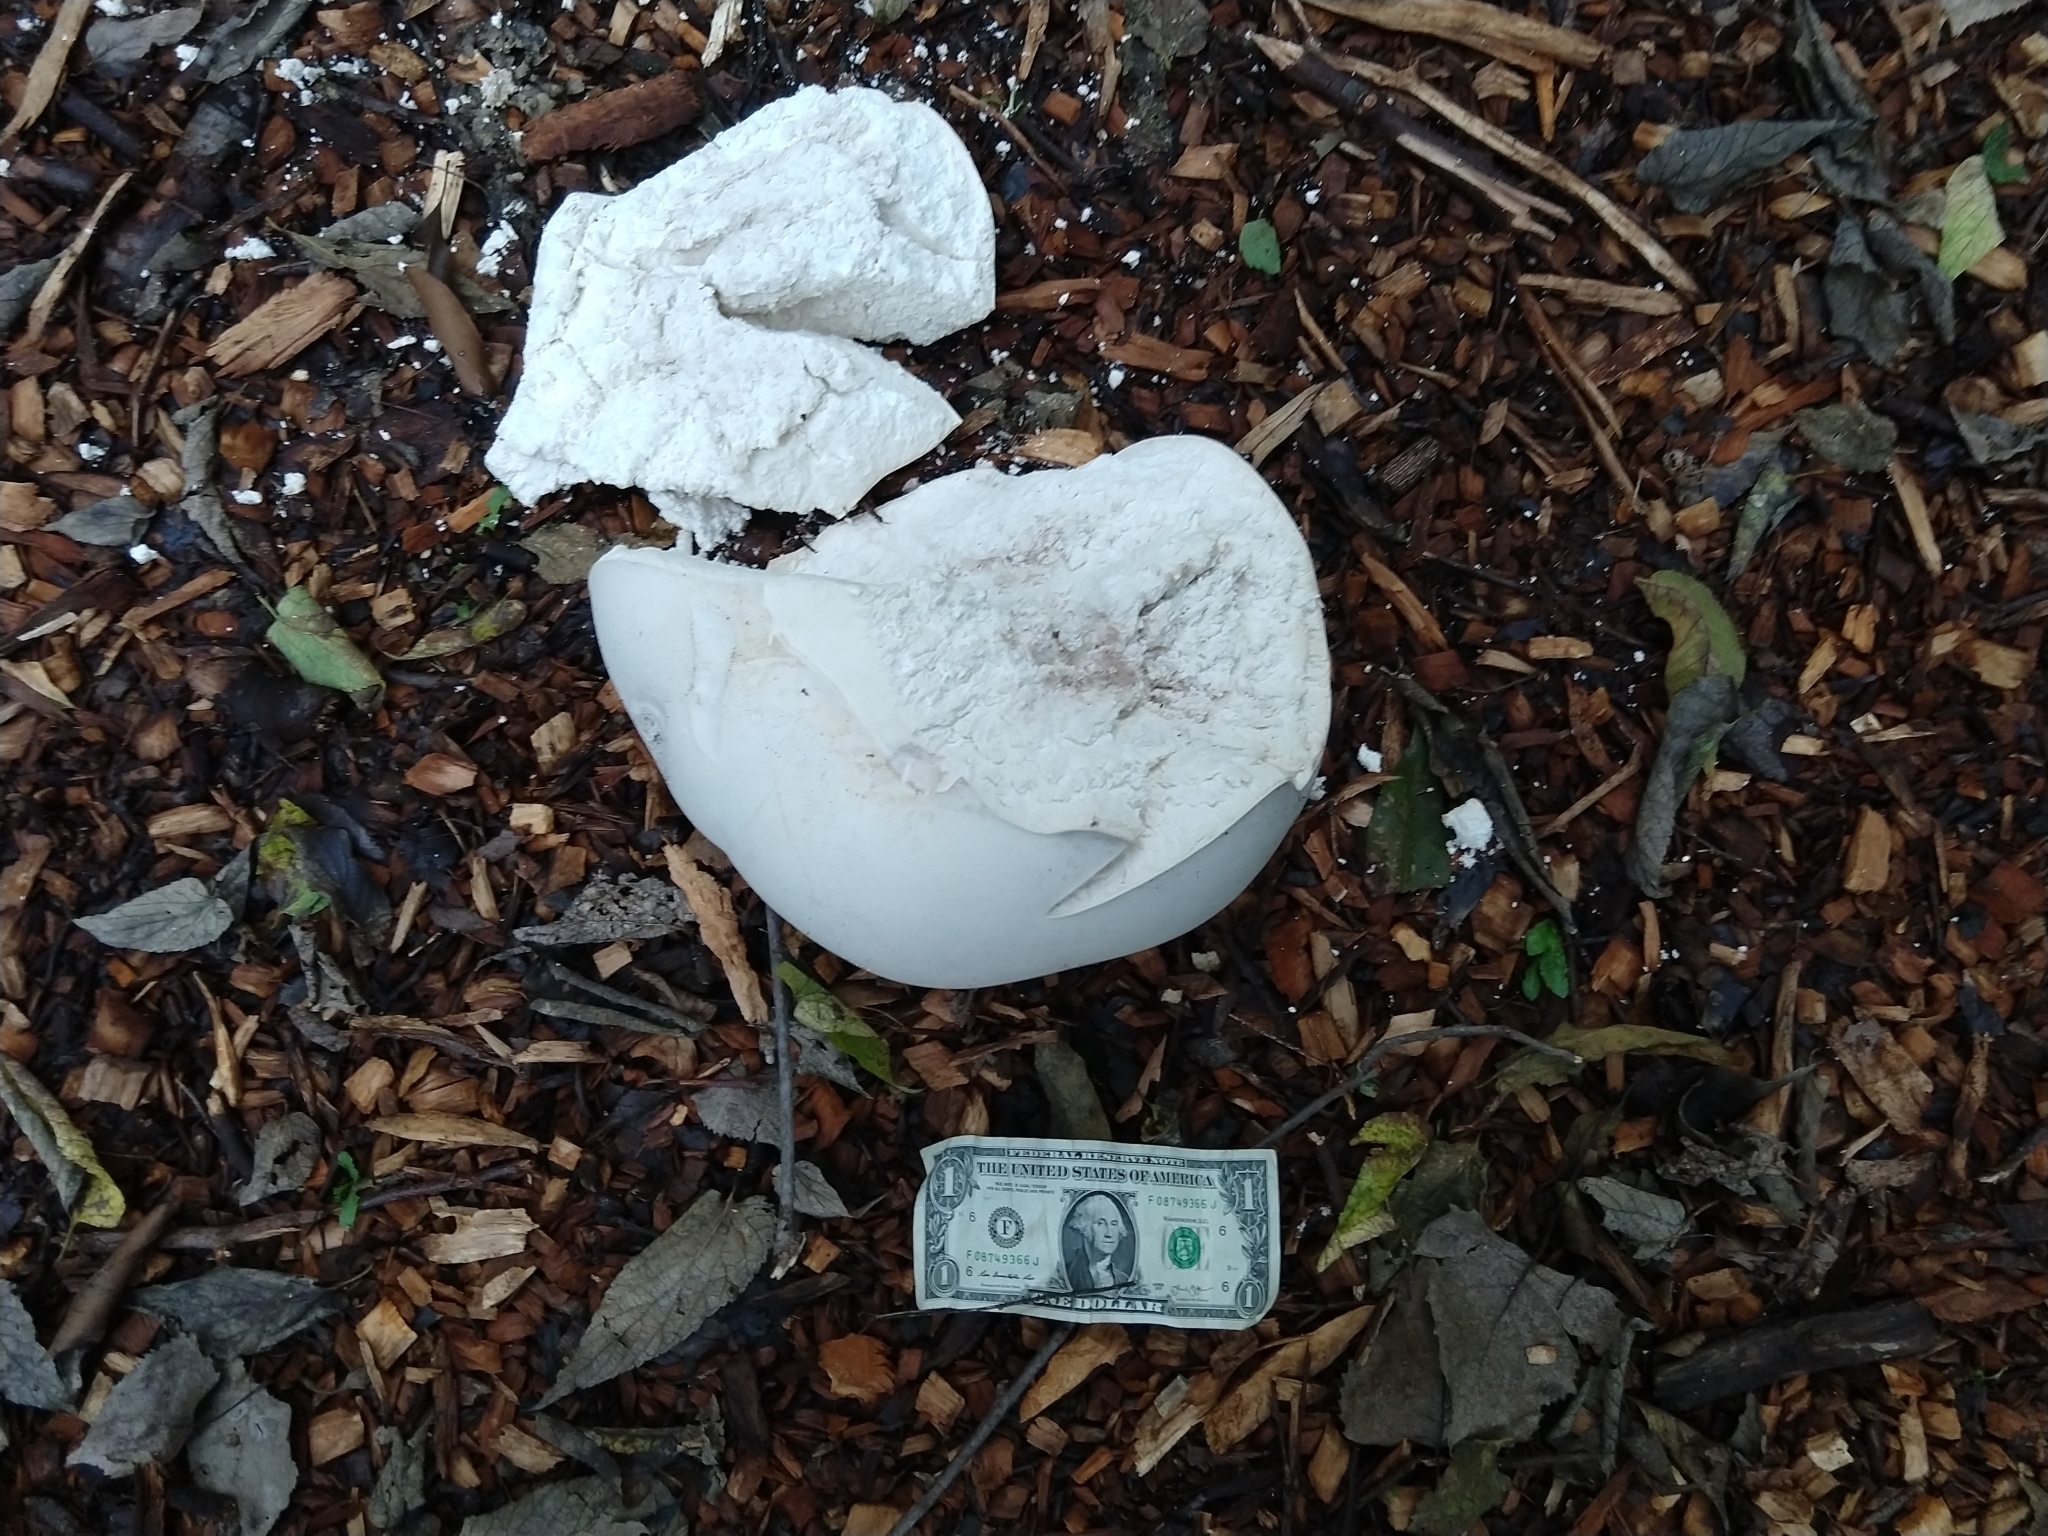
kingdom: Fungi
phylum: Basidiomycota
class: Agaricomycetes
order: Agaricales
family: Lycoperdaceae
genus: Calvatia
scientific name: Calvatia gigantea
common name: Giant puffball
